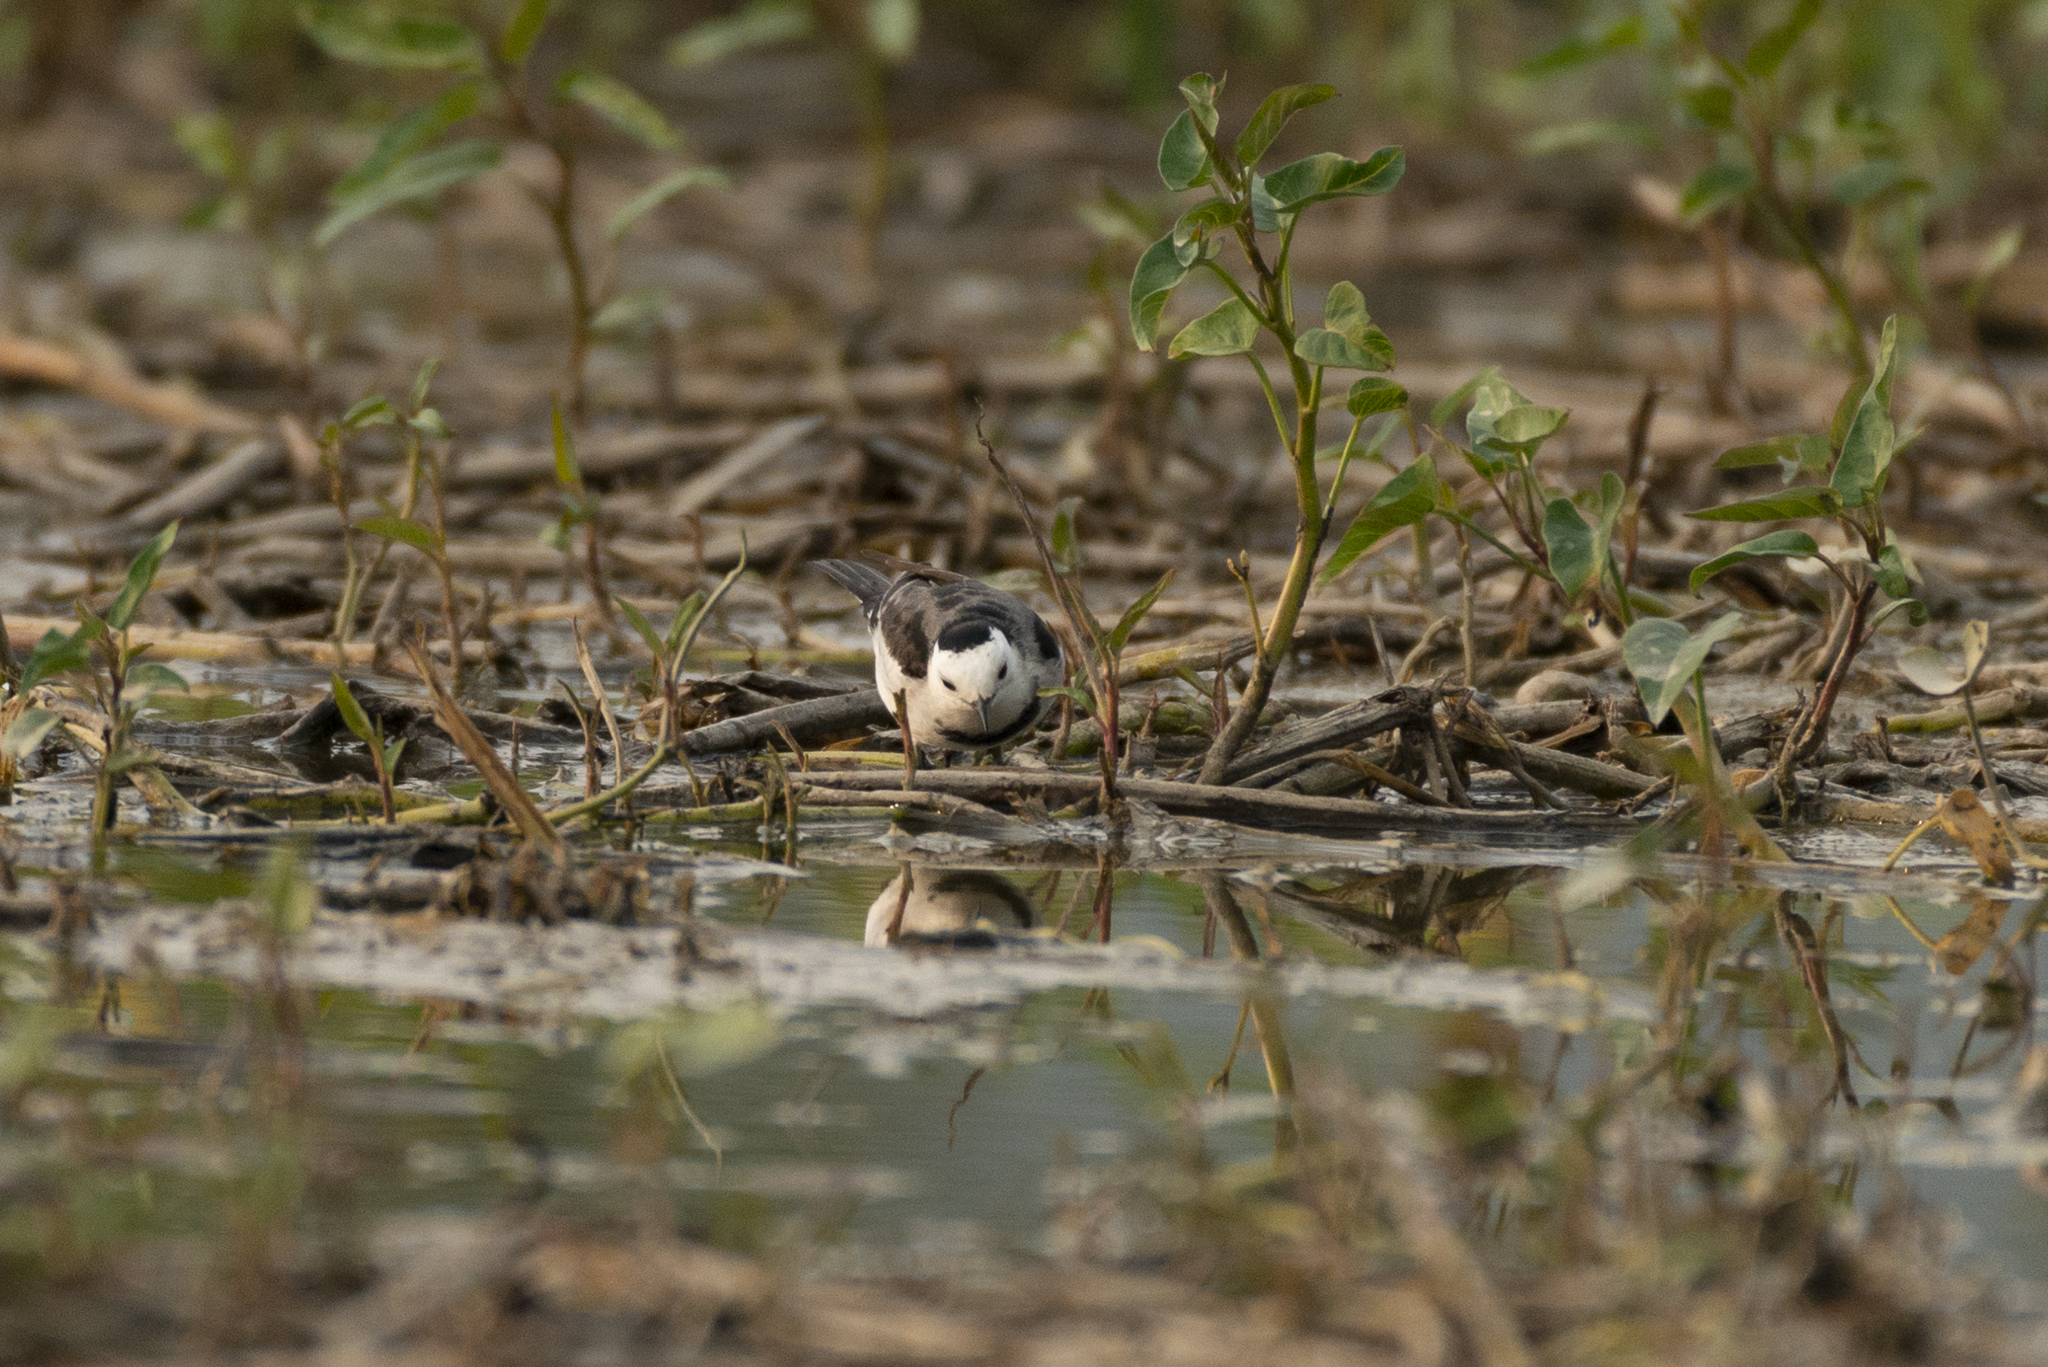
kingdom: Animalia
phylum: Chordata
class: Aves
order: Passeriformes
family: Motacillidae
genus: Motacilla
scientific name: Motacilla alba
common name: White wagtail
